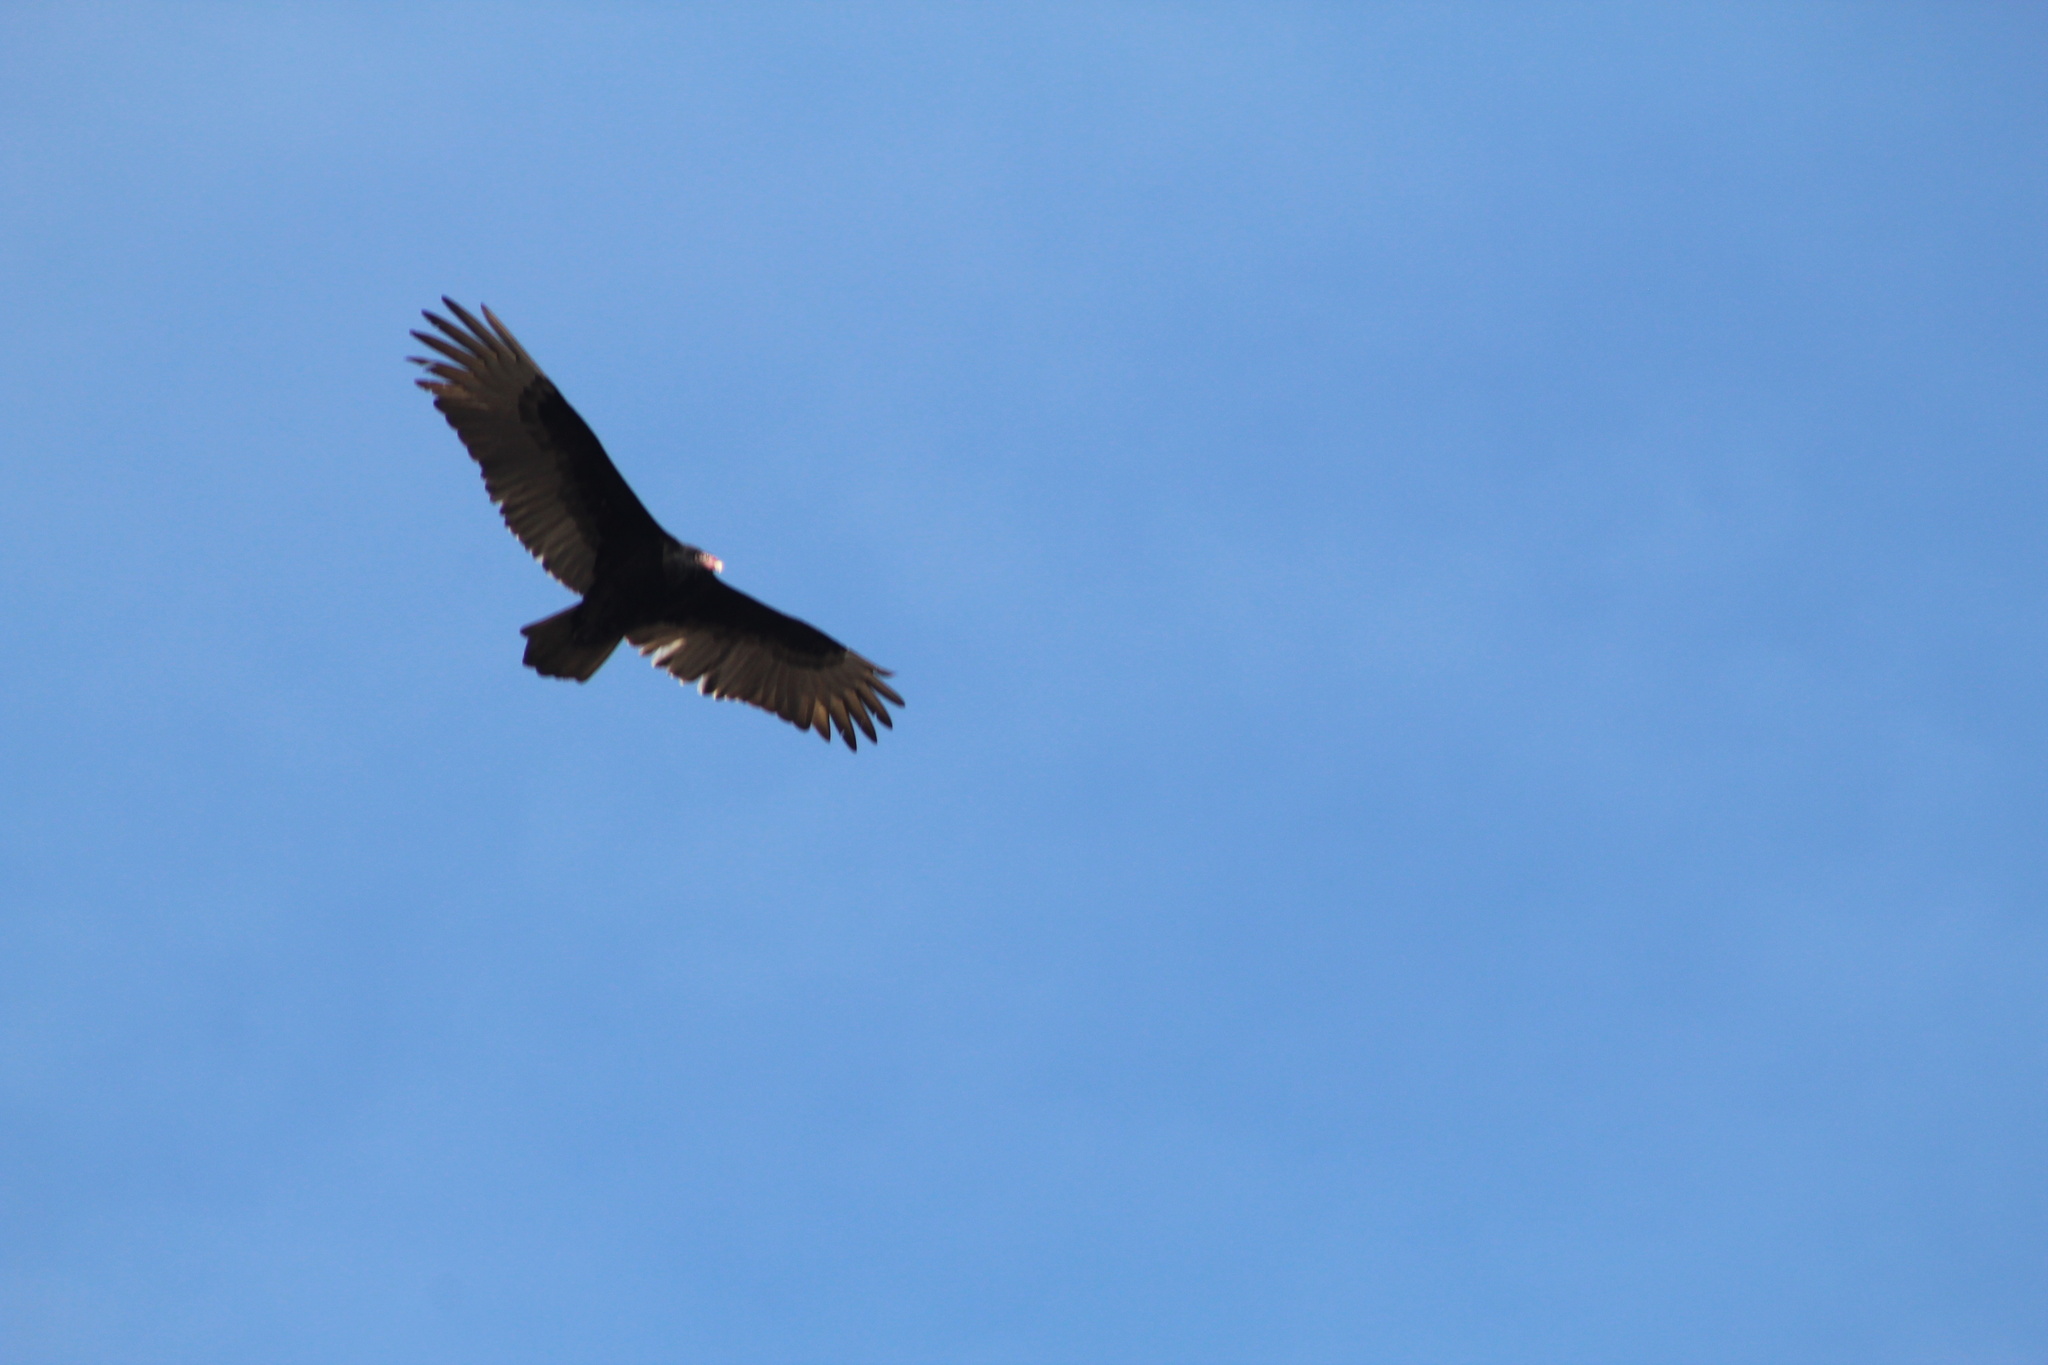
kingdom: Animalia
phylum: Chordata
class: Aves
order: Accipitriformes
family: Cathartidae
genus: Cathartes
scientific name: Cathartes aura
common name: Turkey vulture
